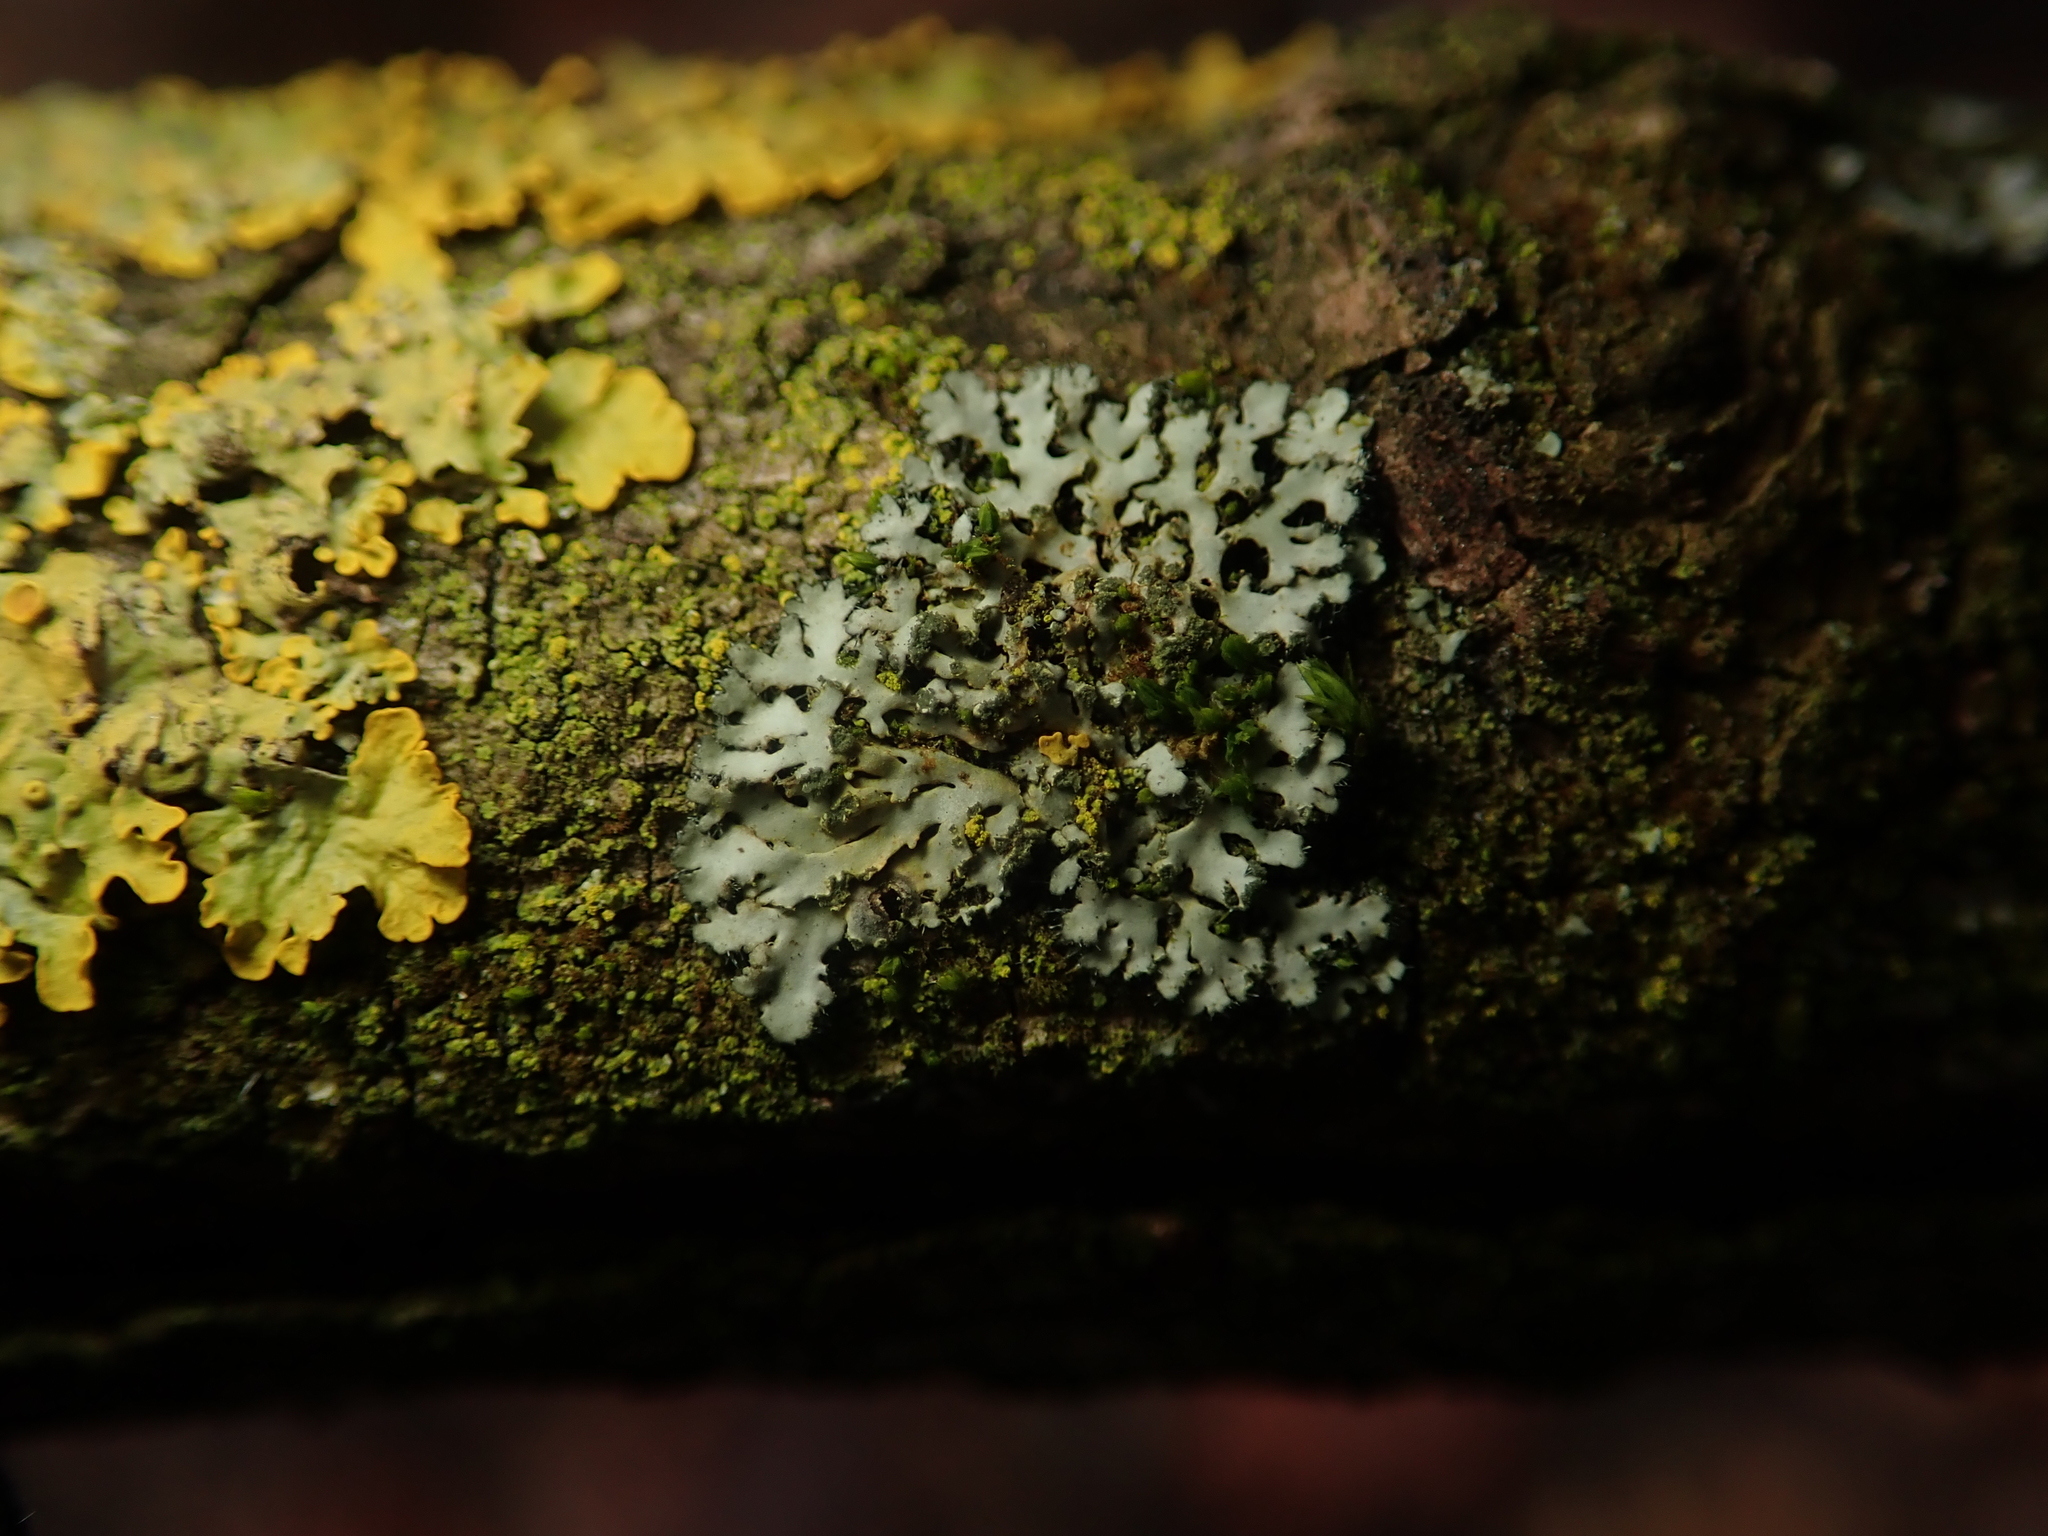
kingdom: Fungi
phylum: Ascomycota
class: Lecanoromycetes
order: Caliciales
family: Physciaceae
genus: Phaeophyscia
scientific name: Phaeophyscia orbicularis
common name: Mealy shadow lichen
